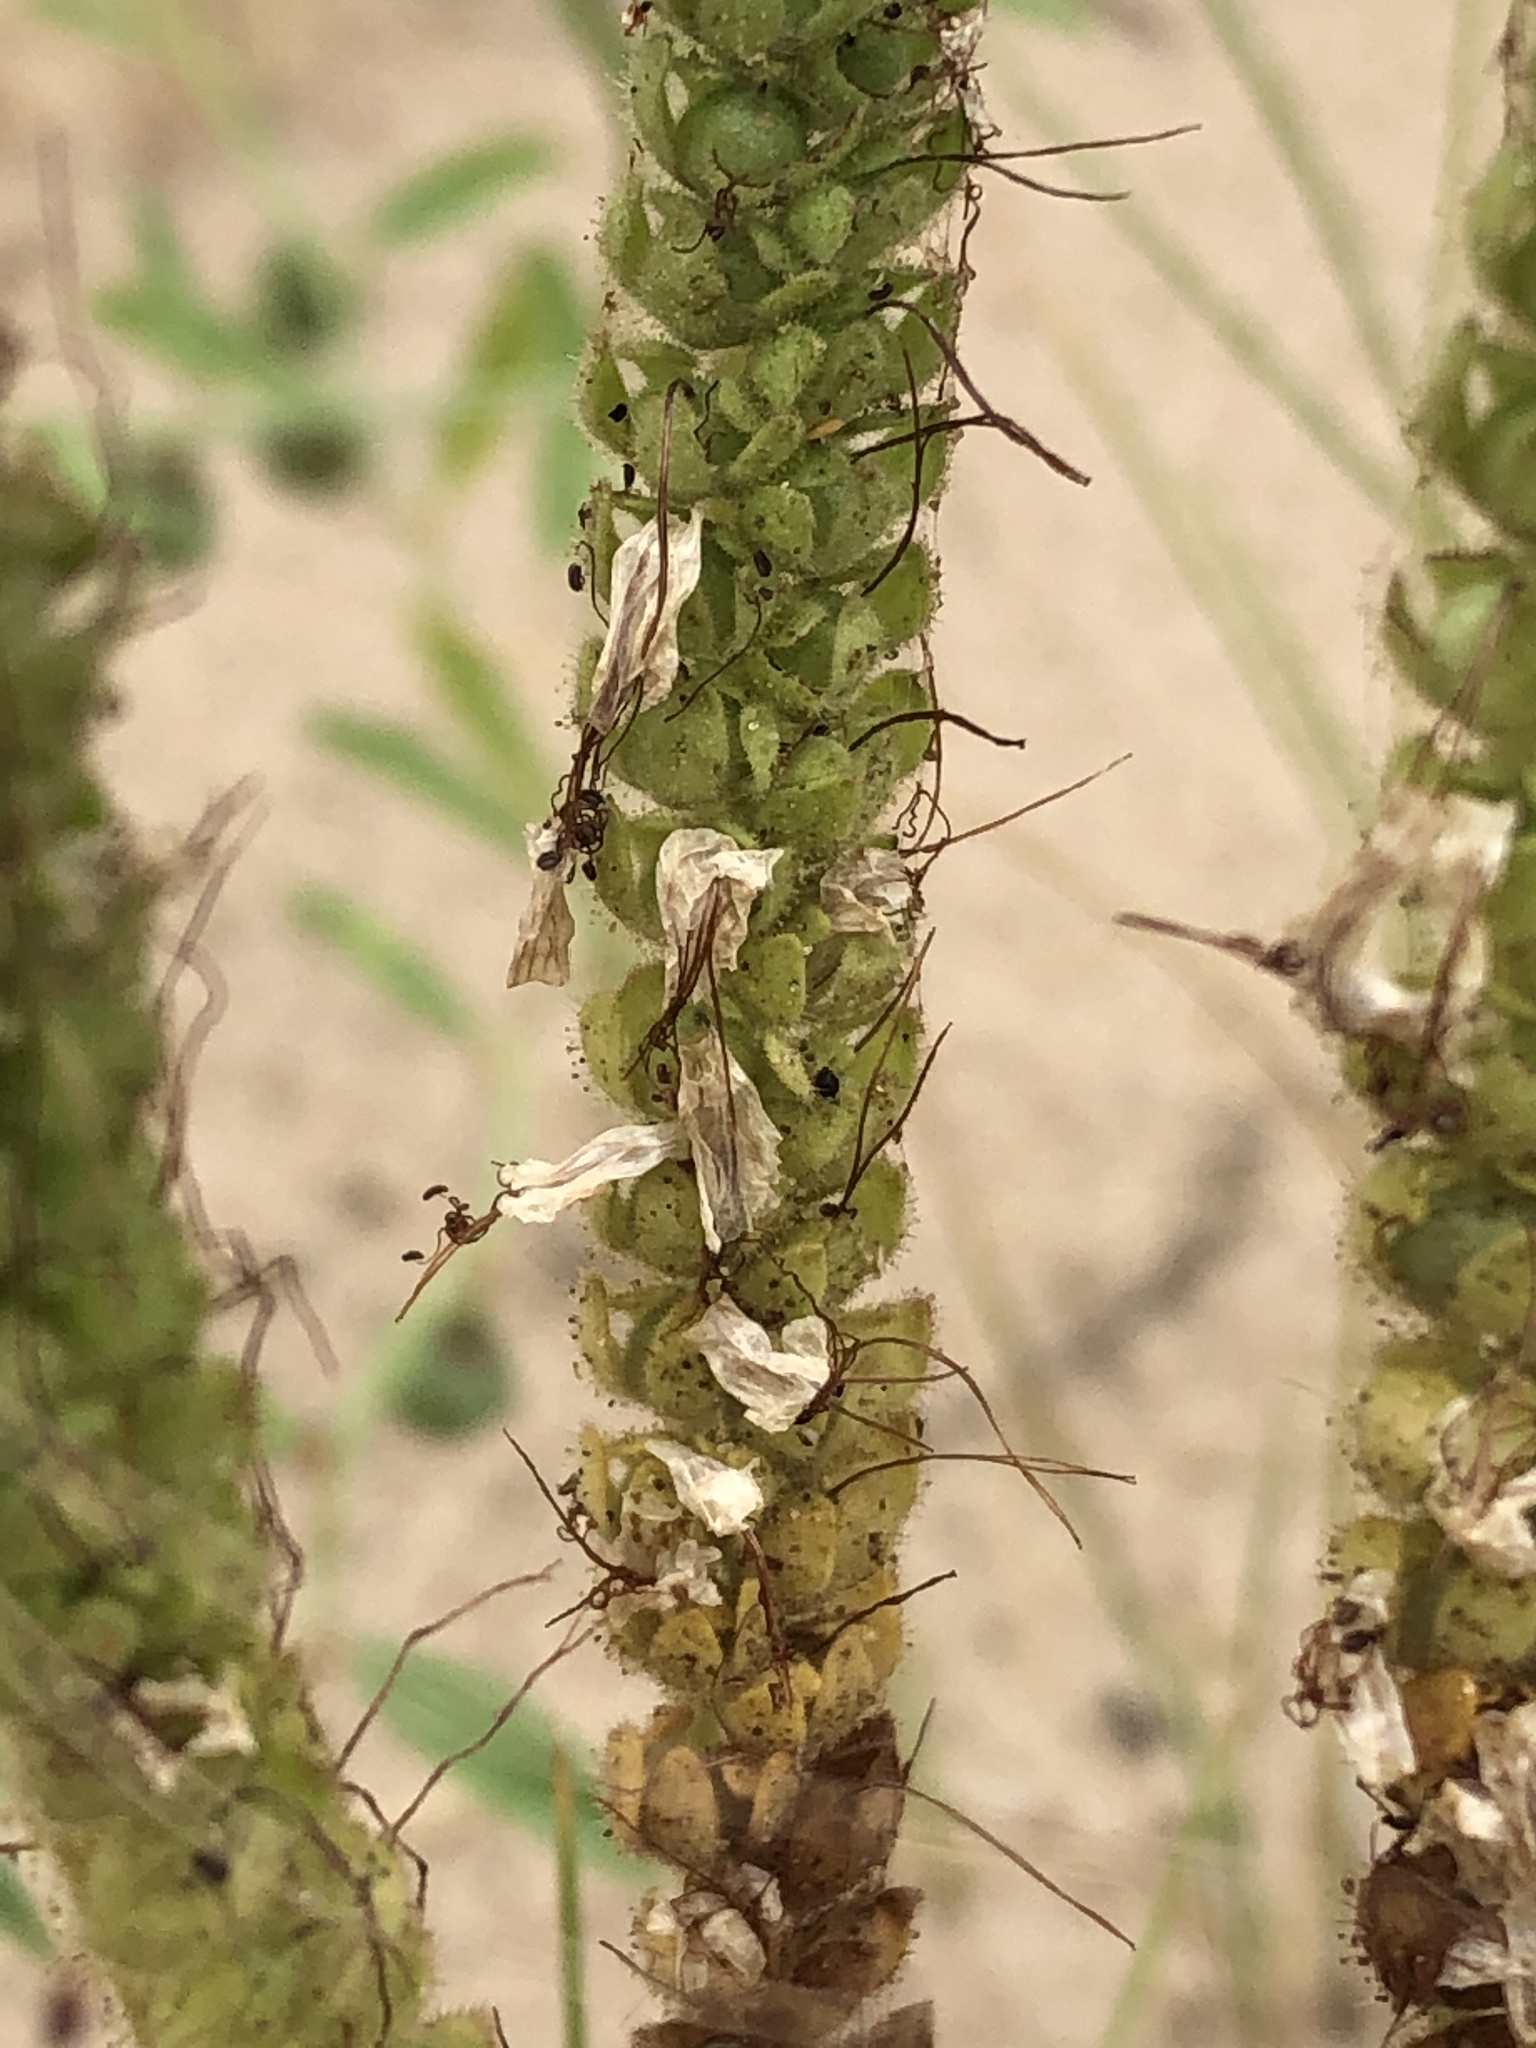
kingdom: Plantae
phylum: Tracheophyta
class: Magnoliopsida
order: Boraginales
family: Hydrophyllaceae
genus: Phacelia
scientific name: Phacelia integrifolia
